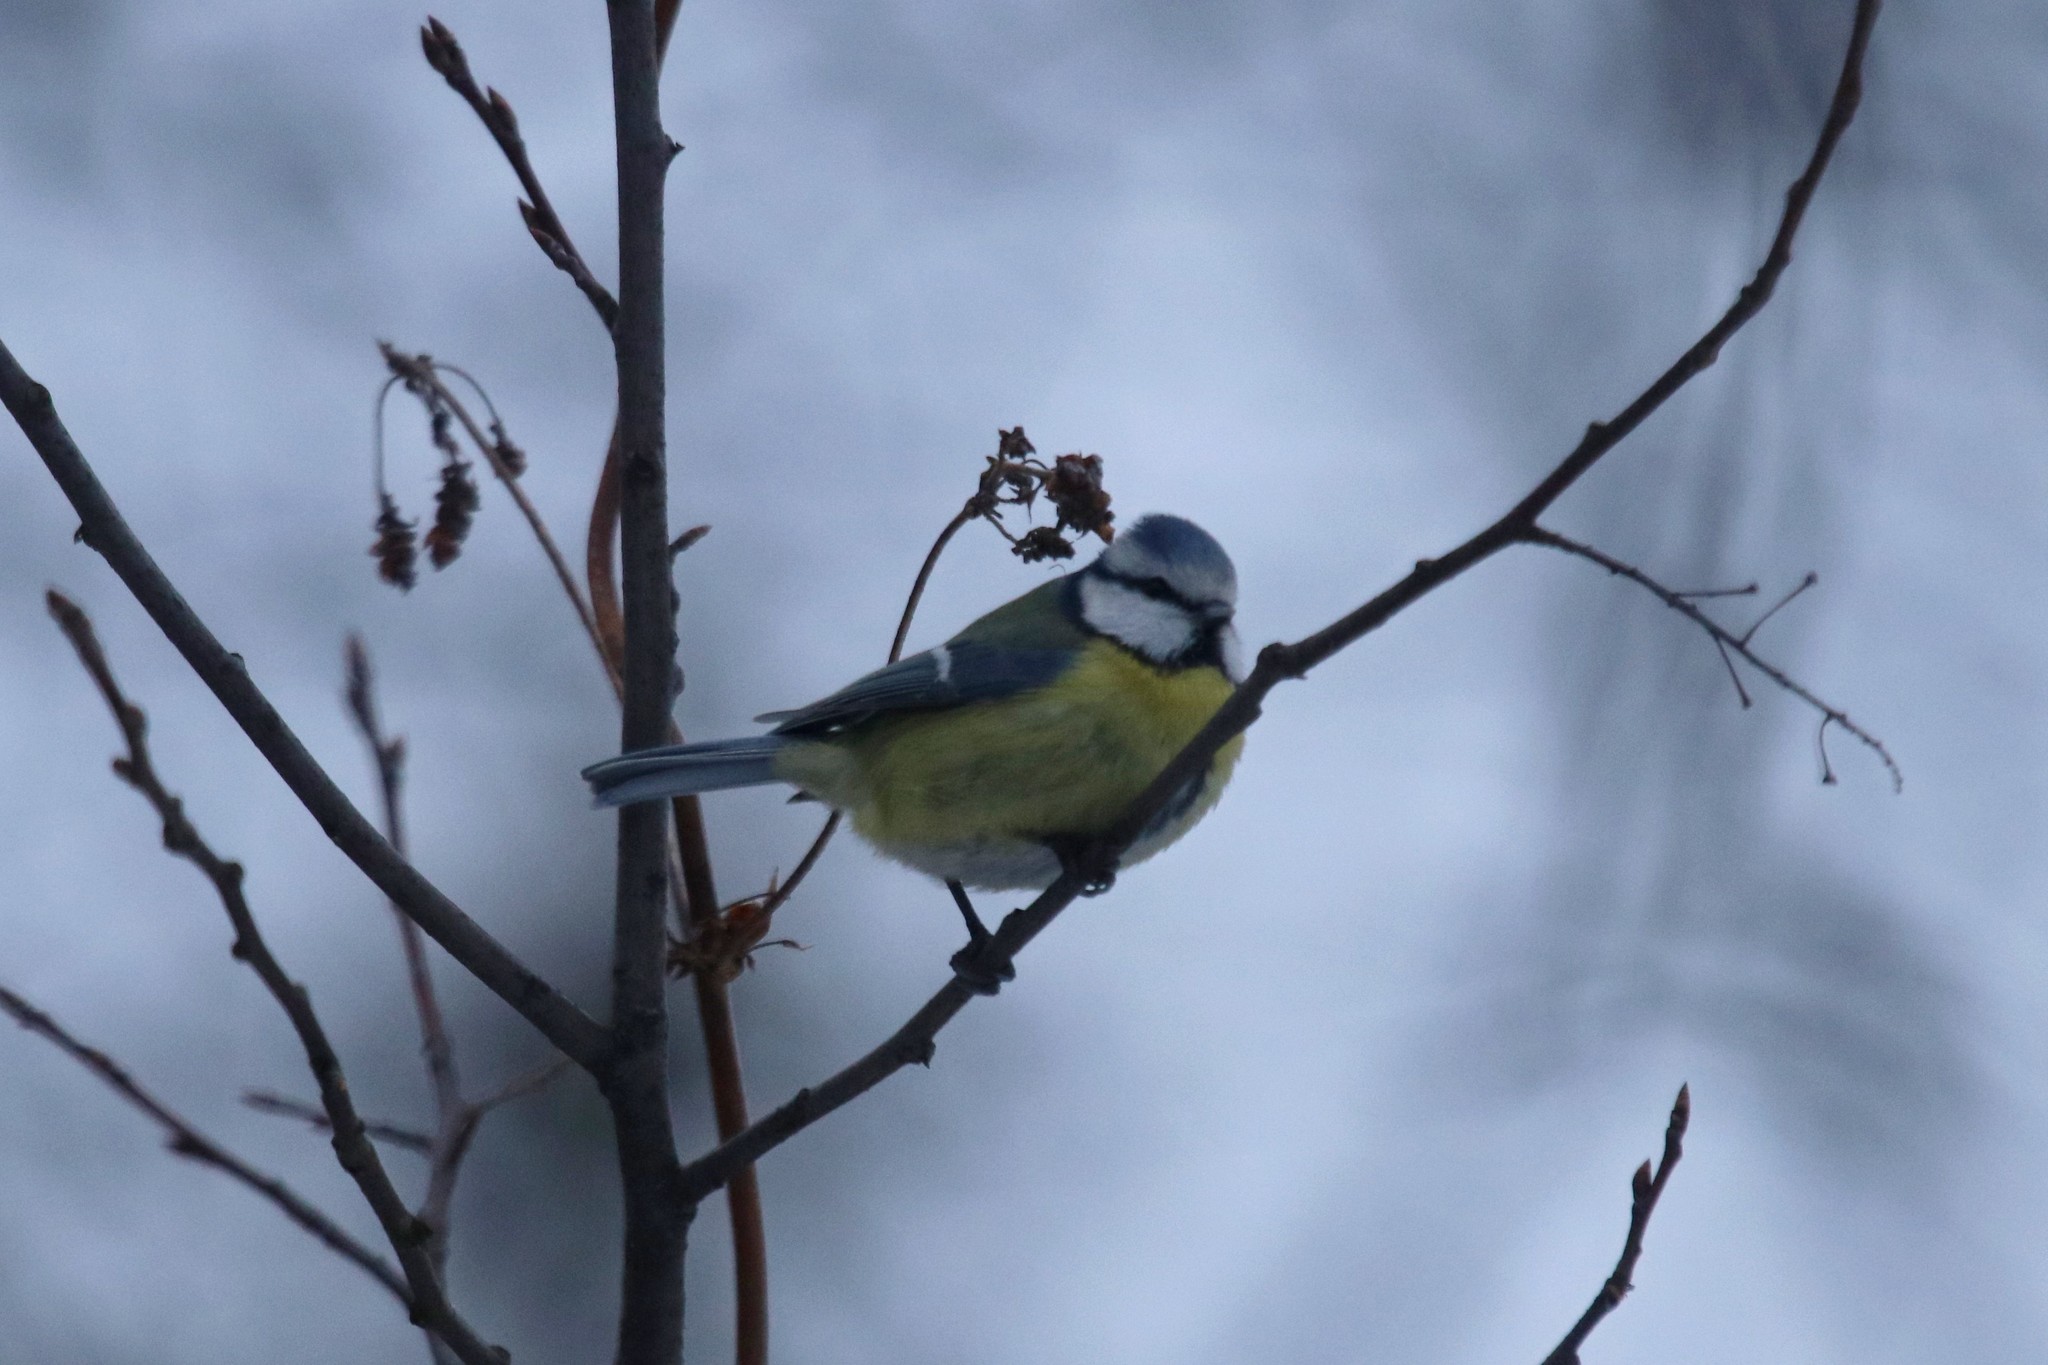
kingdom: Animalia
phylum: Chordata
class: Aves
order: Passeriformes
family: Paridae
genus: Cyanistes
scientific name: Cyanistes caeruleus
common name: Eurasian blue tit
